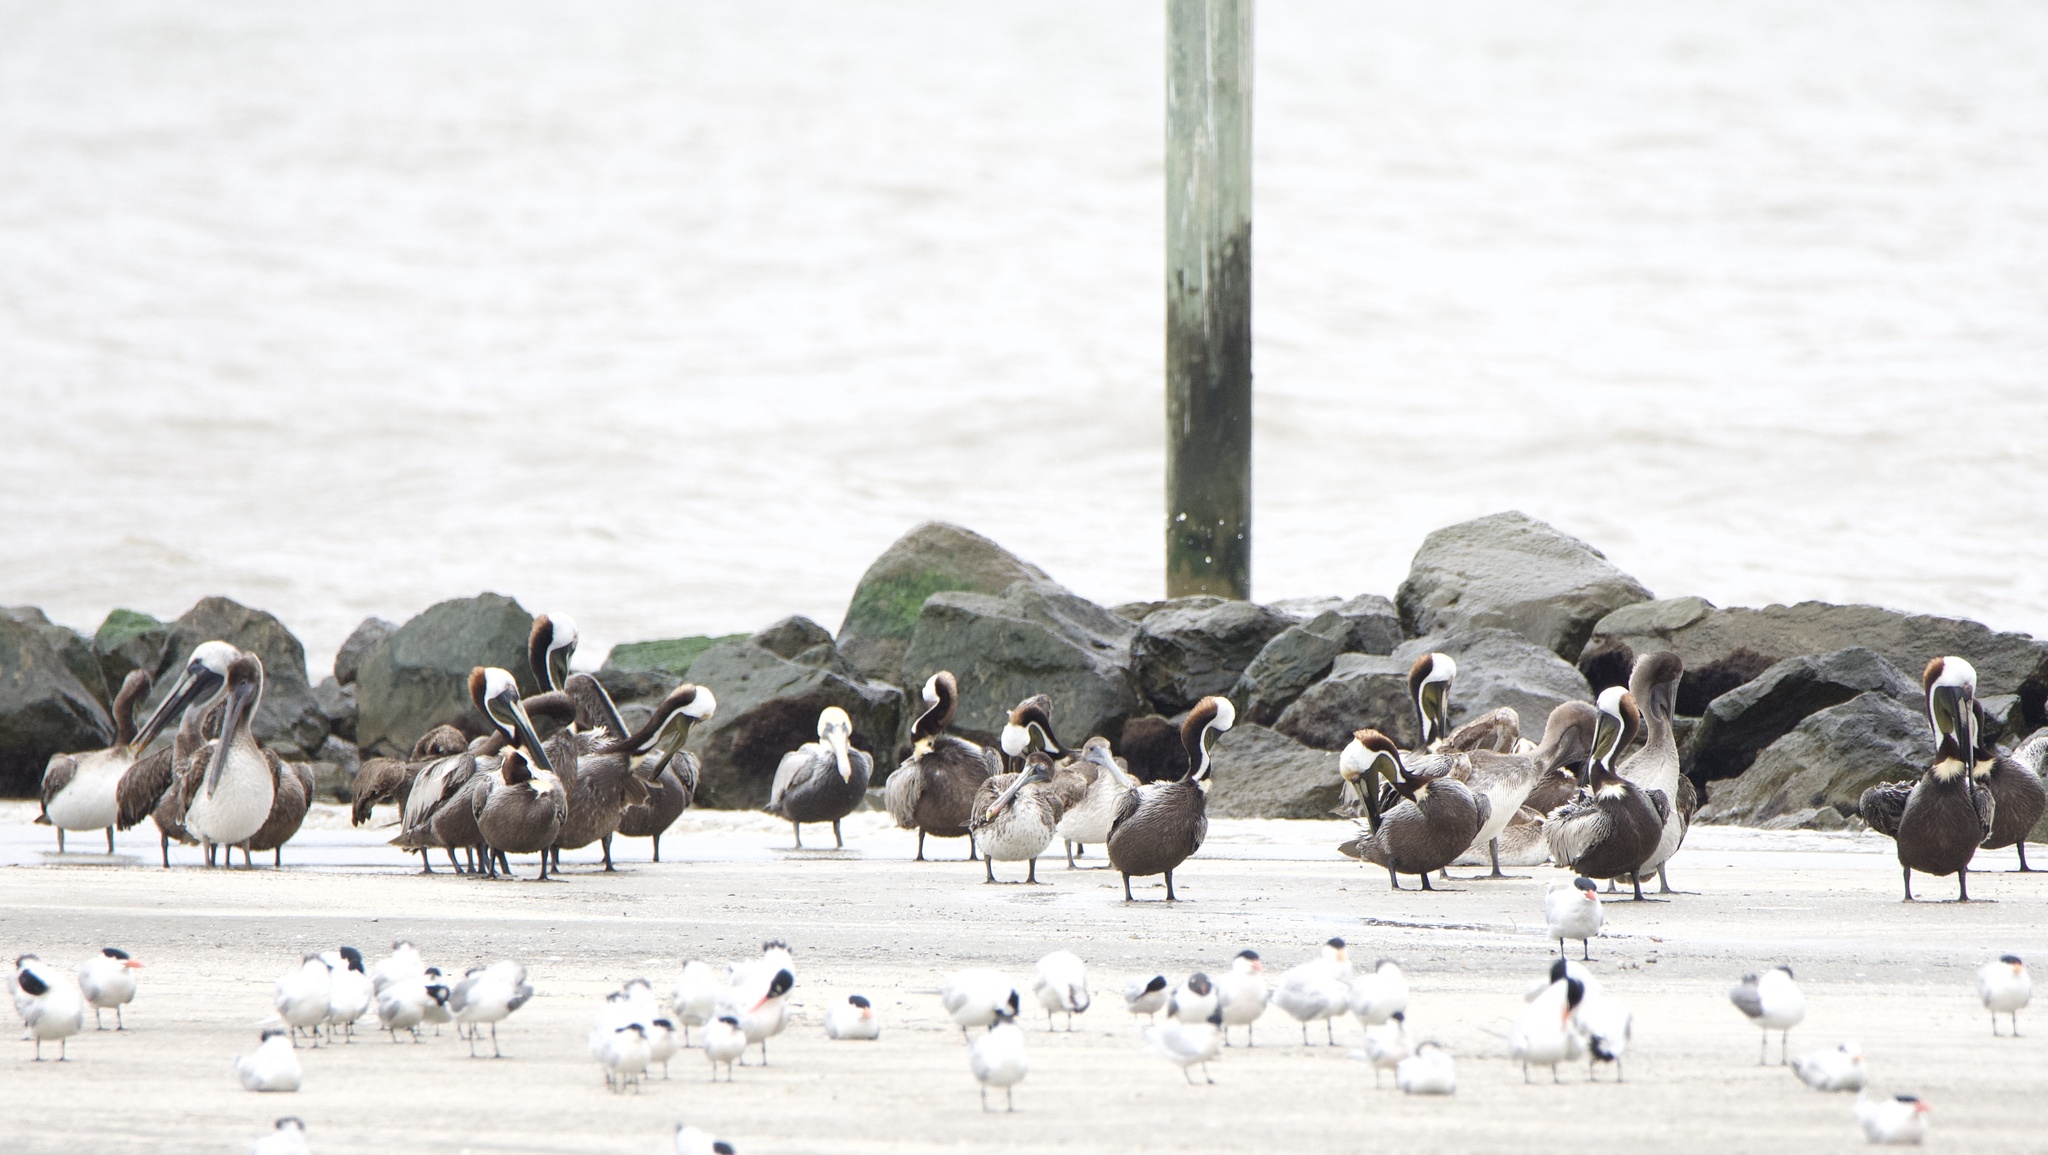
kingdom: Animalia
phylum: Chordata
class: Aves
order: Pelecaniformes
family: Pelecanidae
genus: Pelecanus
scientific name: Pelecanus occidentalis
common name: Brown pelican
